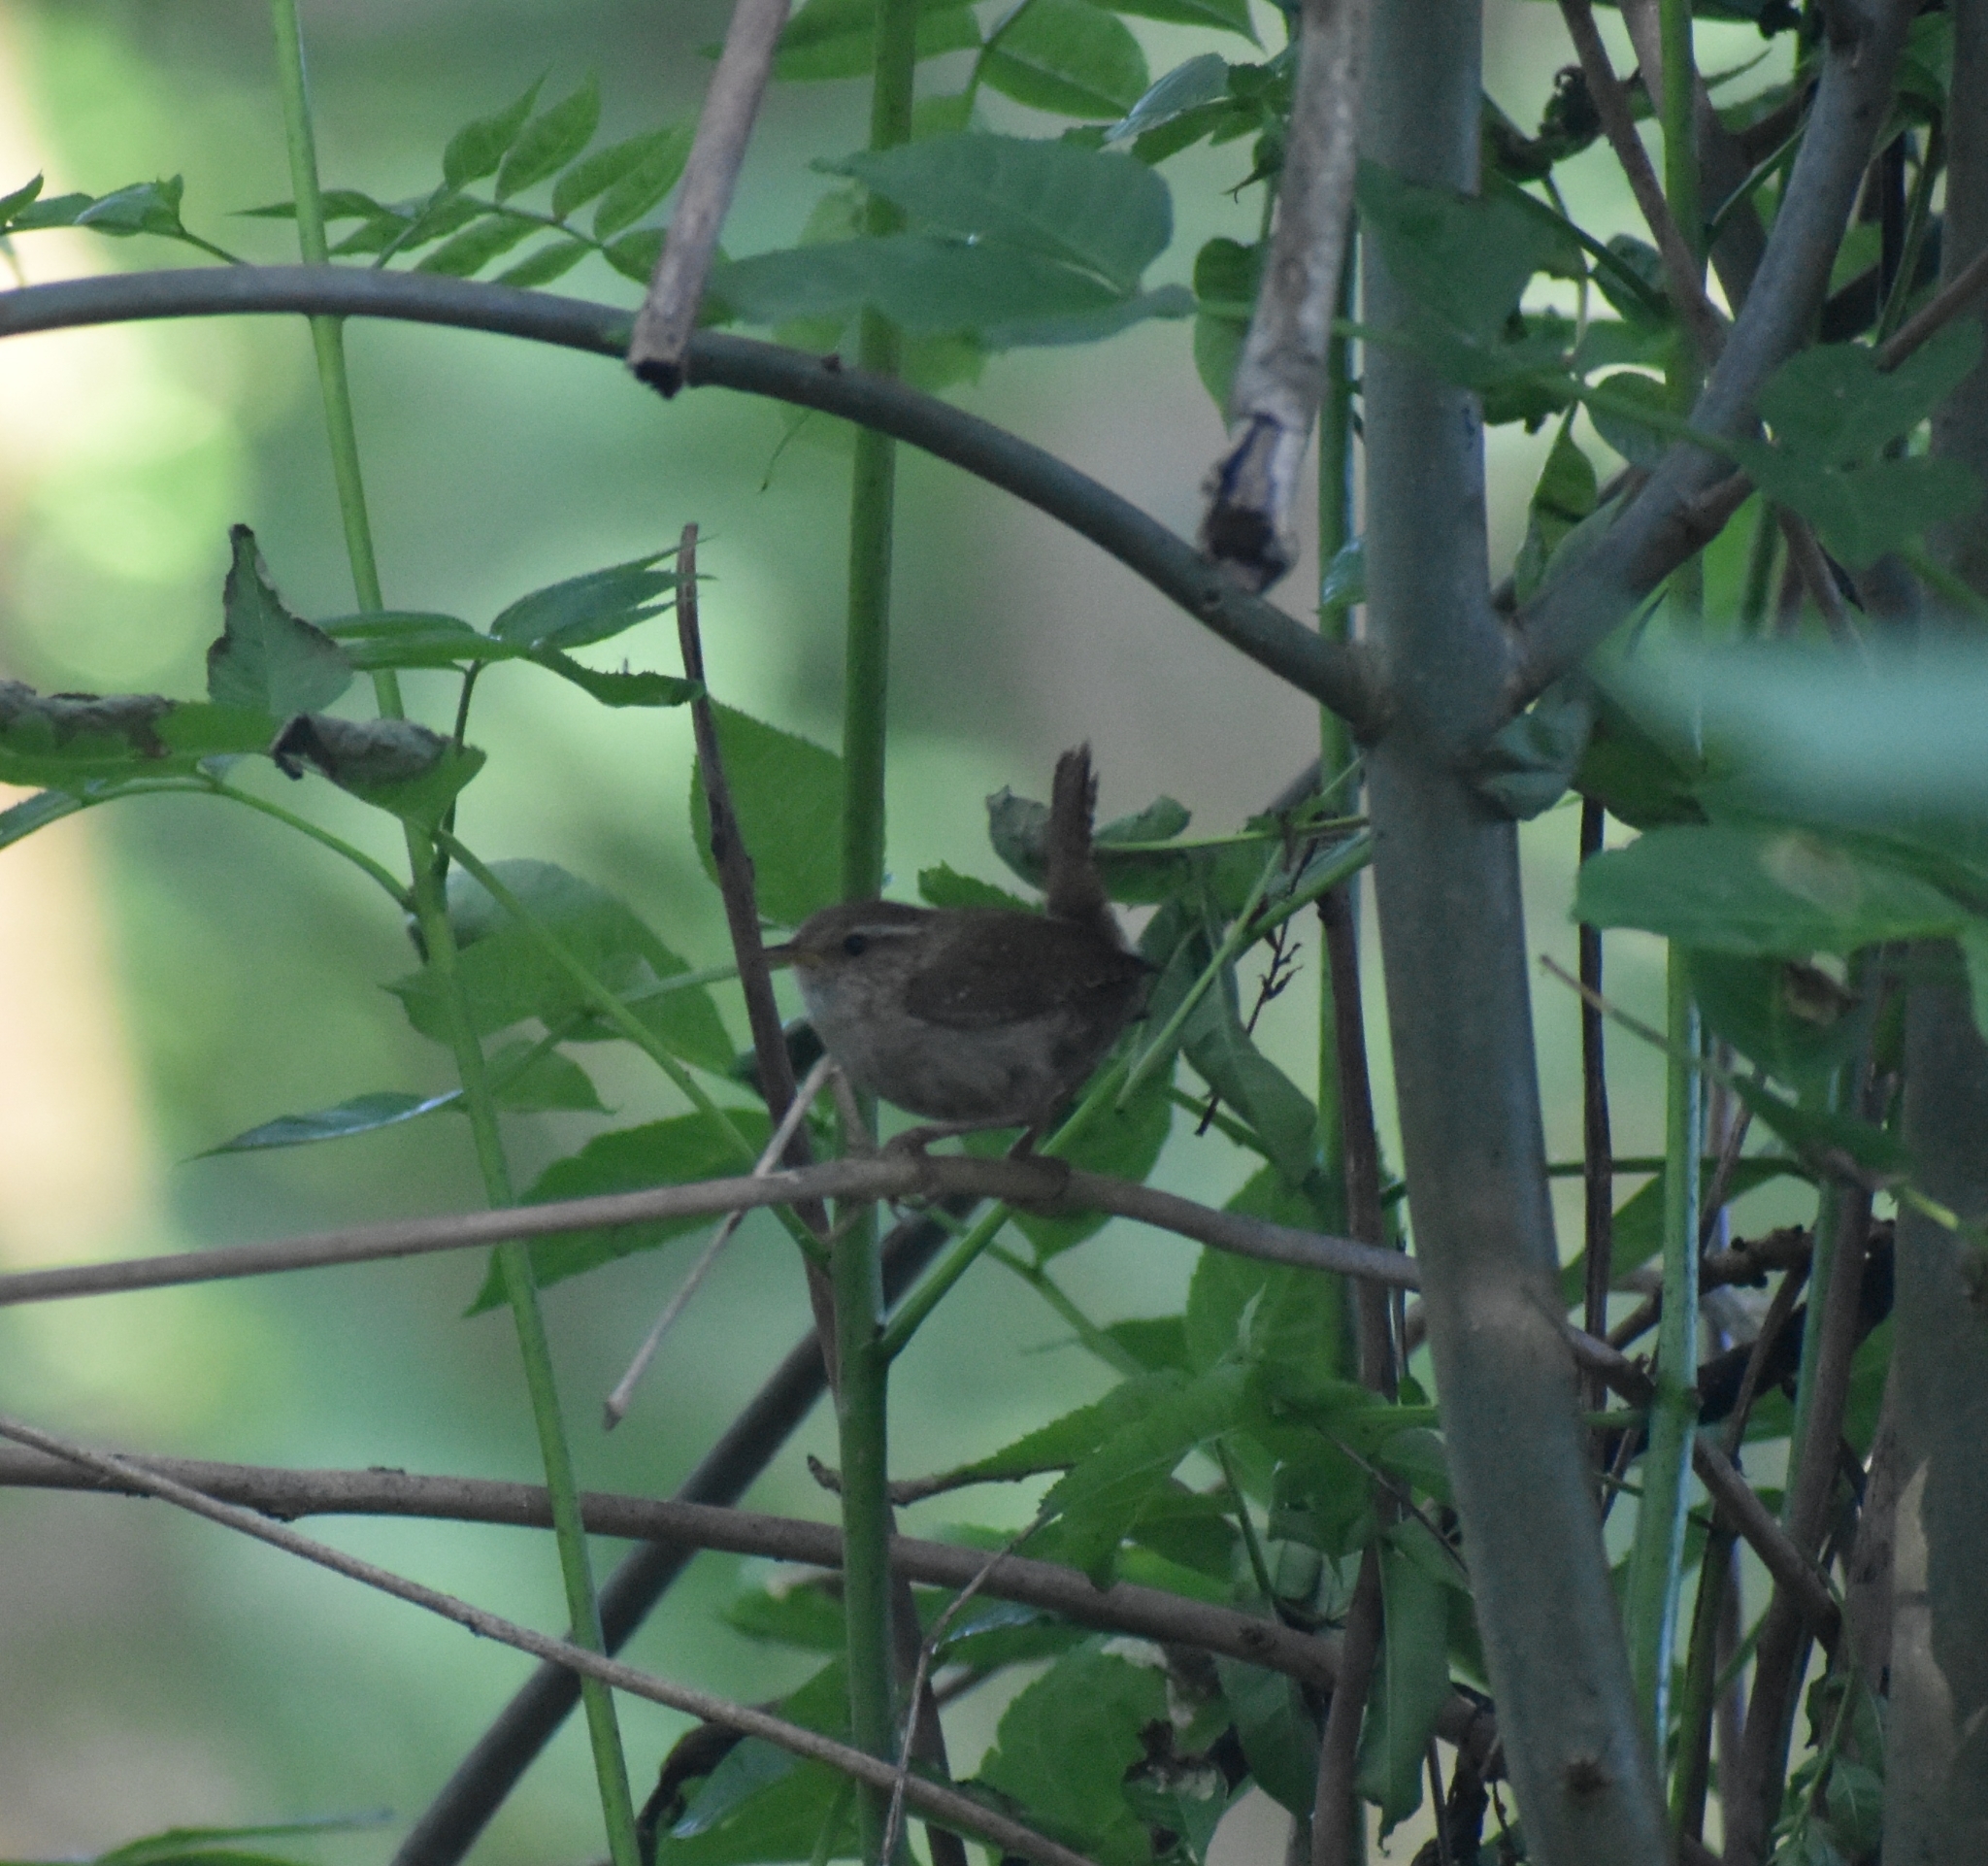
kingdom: Animalia
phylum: Chordata
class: Aves
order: Passeriformes
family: Troglodytidae
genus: Troglodytes
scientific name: Troglodytes troglodytes
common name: Eurasian wren
